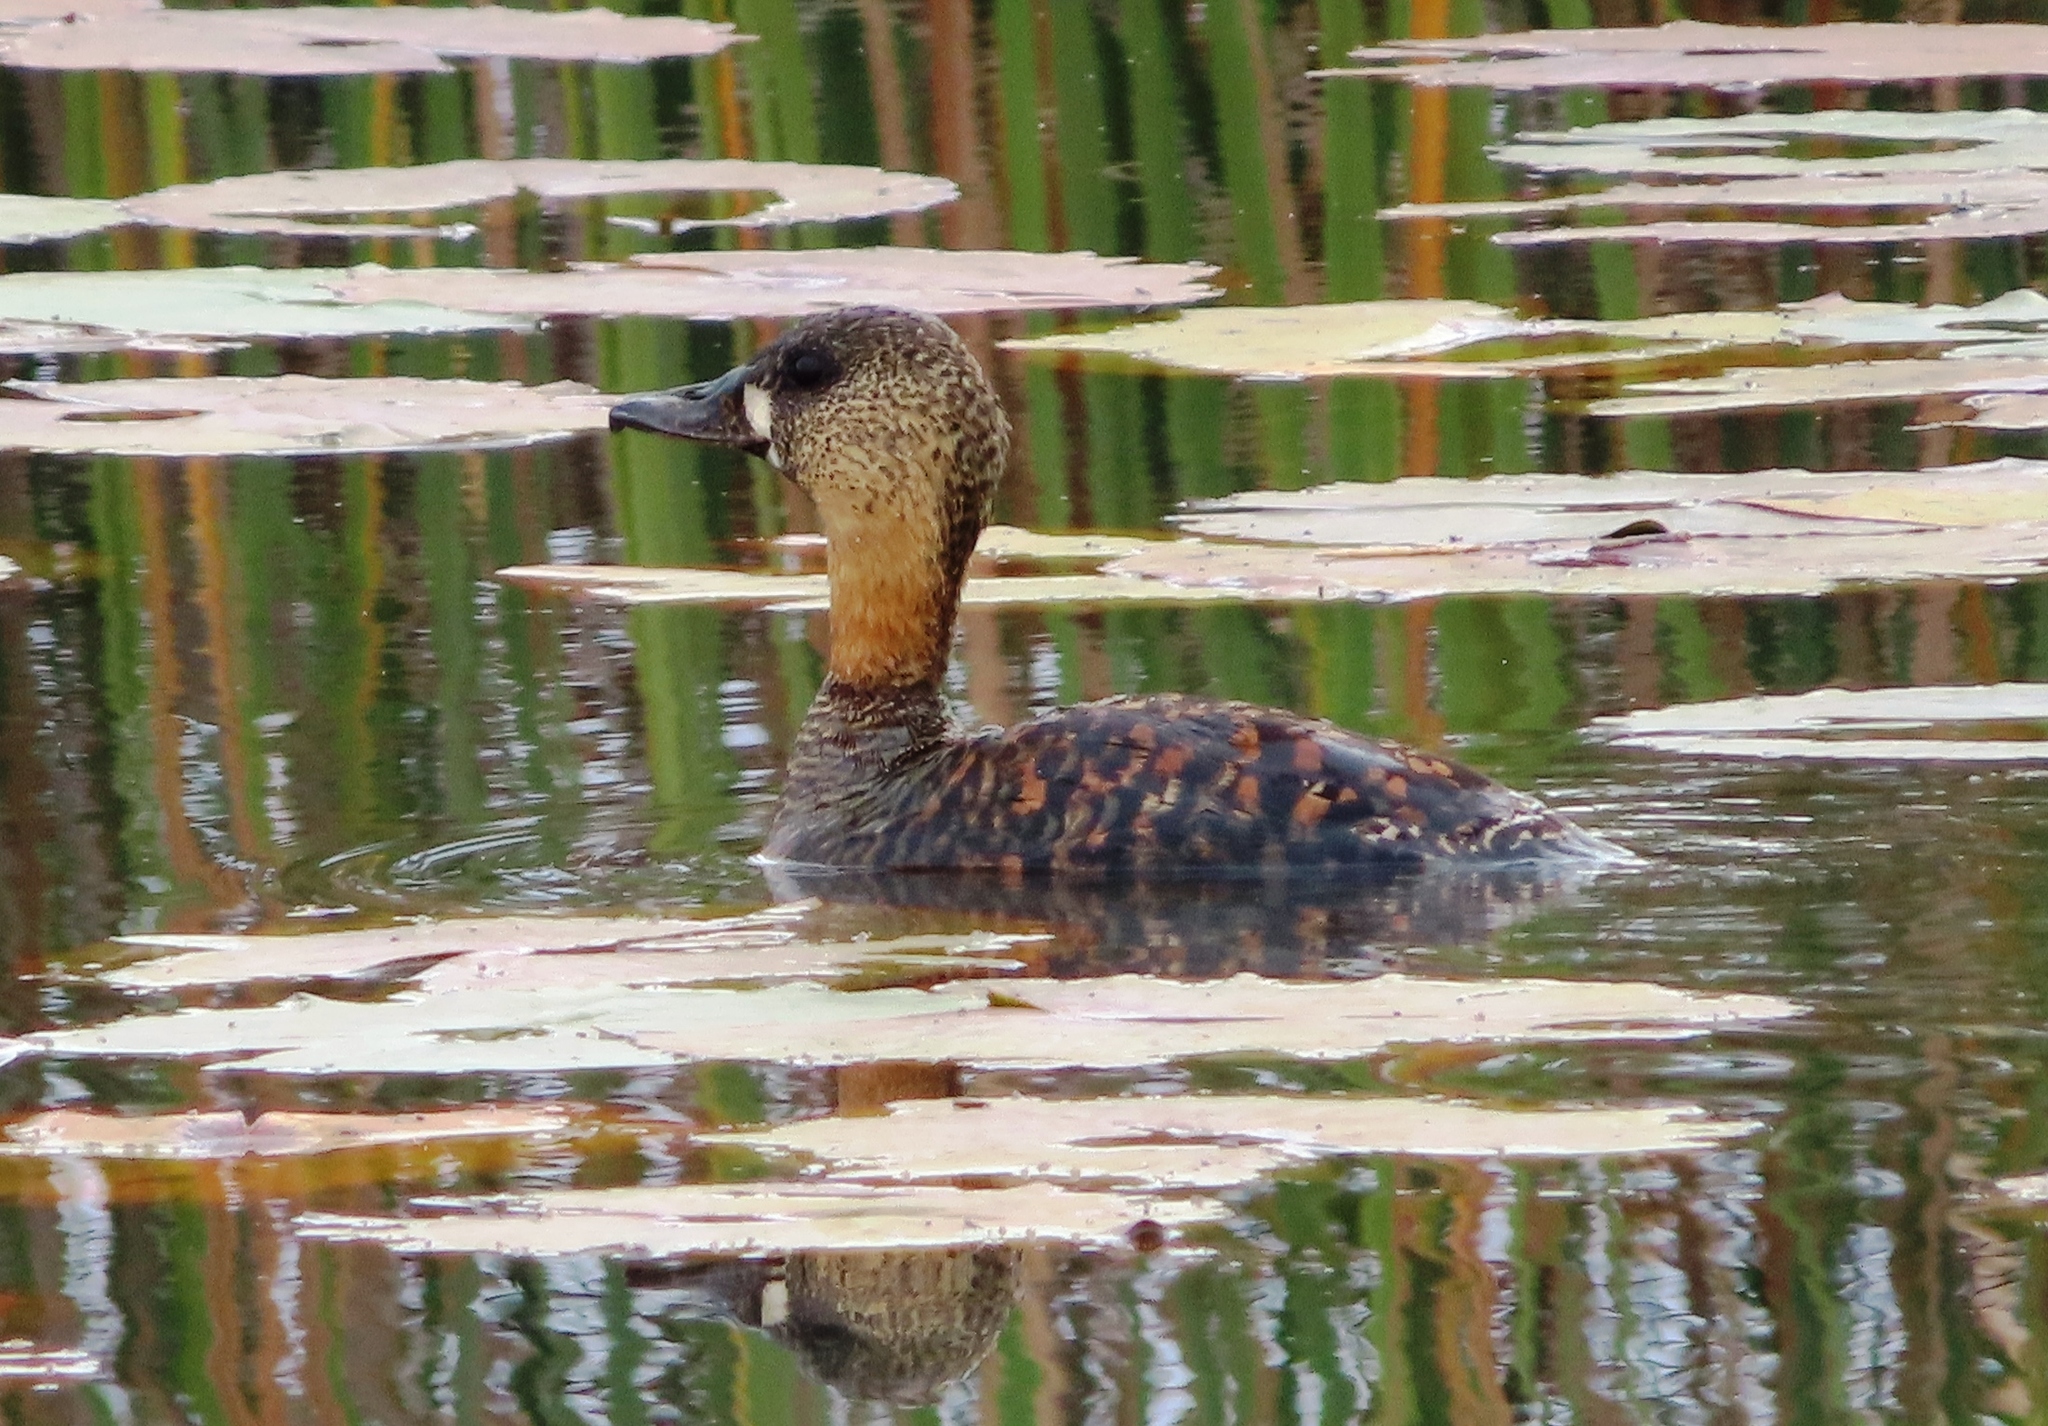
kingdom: Animalia
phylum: Chordata
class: Aves
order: Anseriformes
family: Anatidae
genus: Thalassornis
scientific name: Thalassornis leuconotus
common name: White-backed duck
